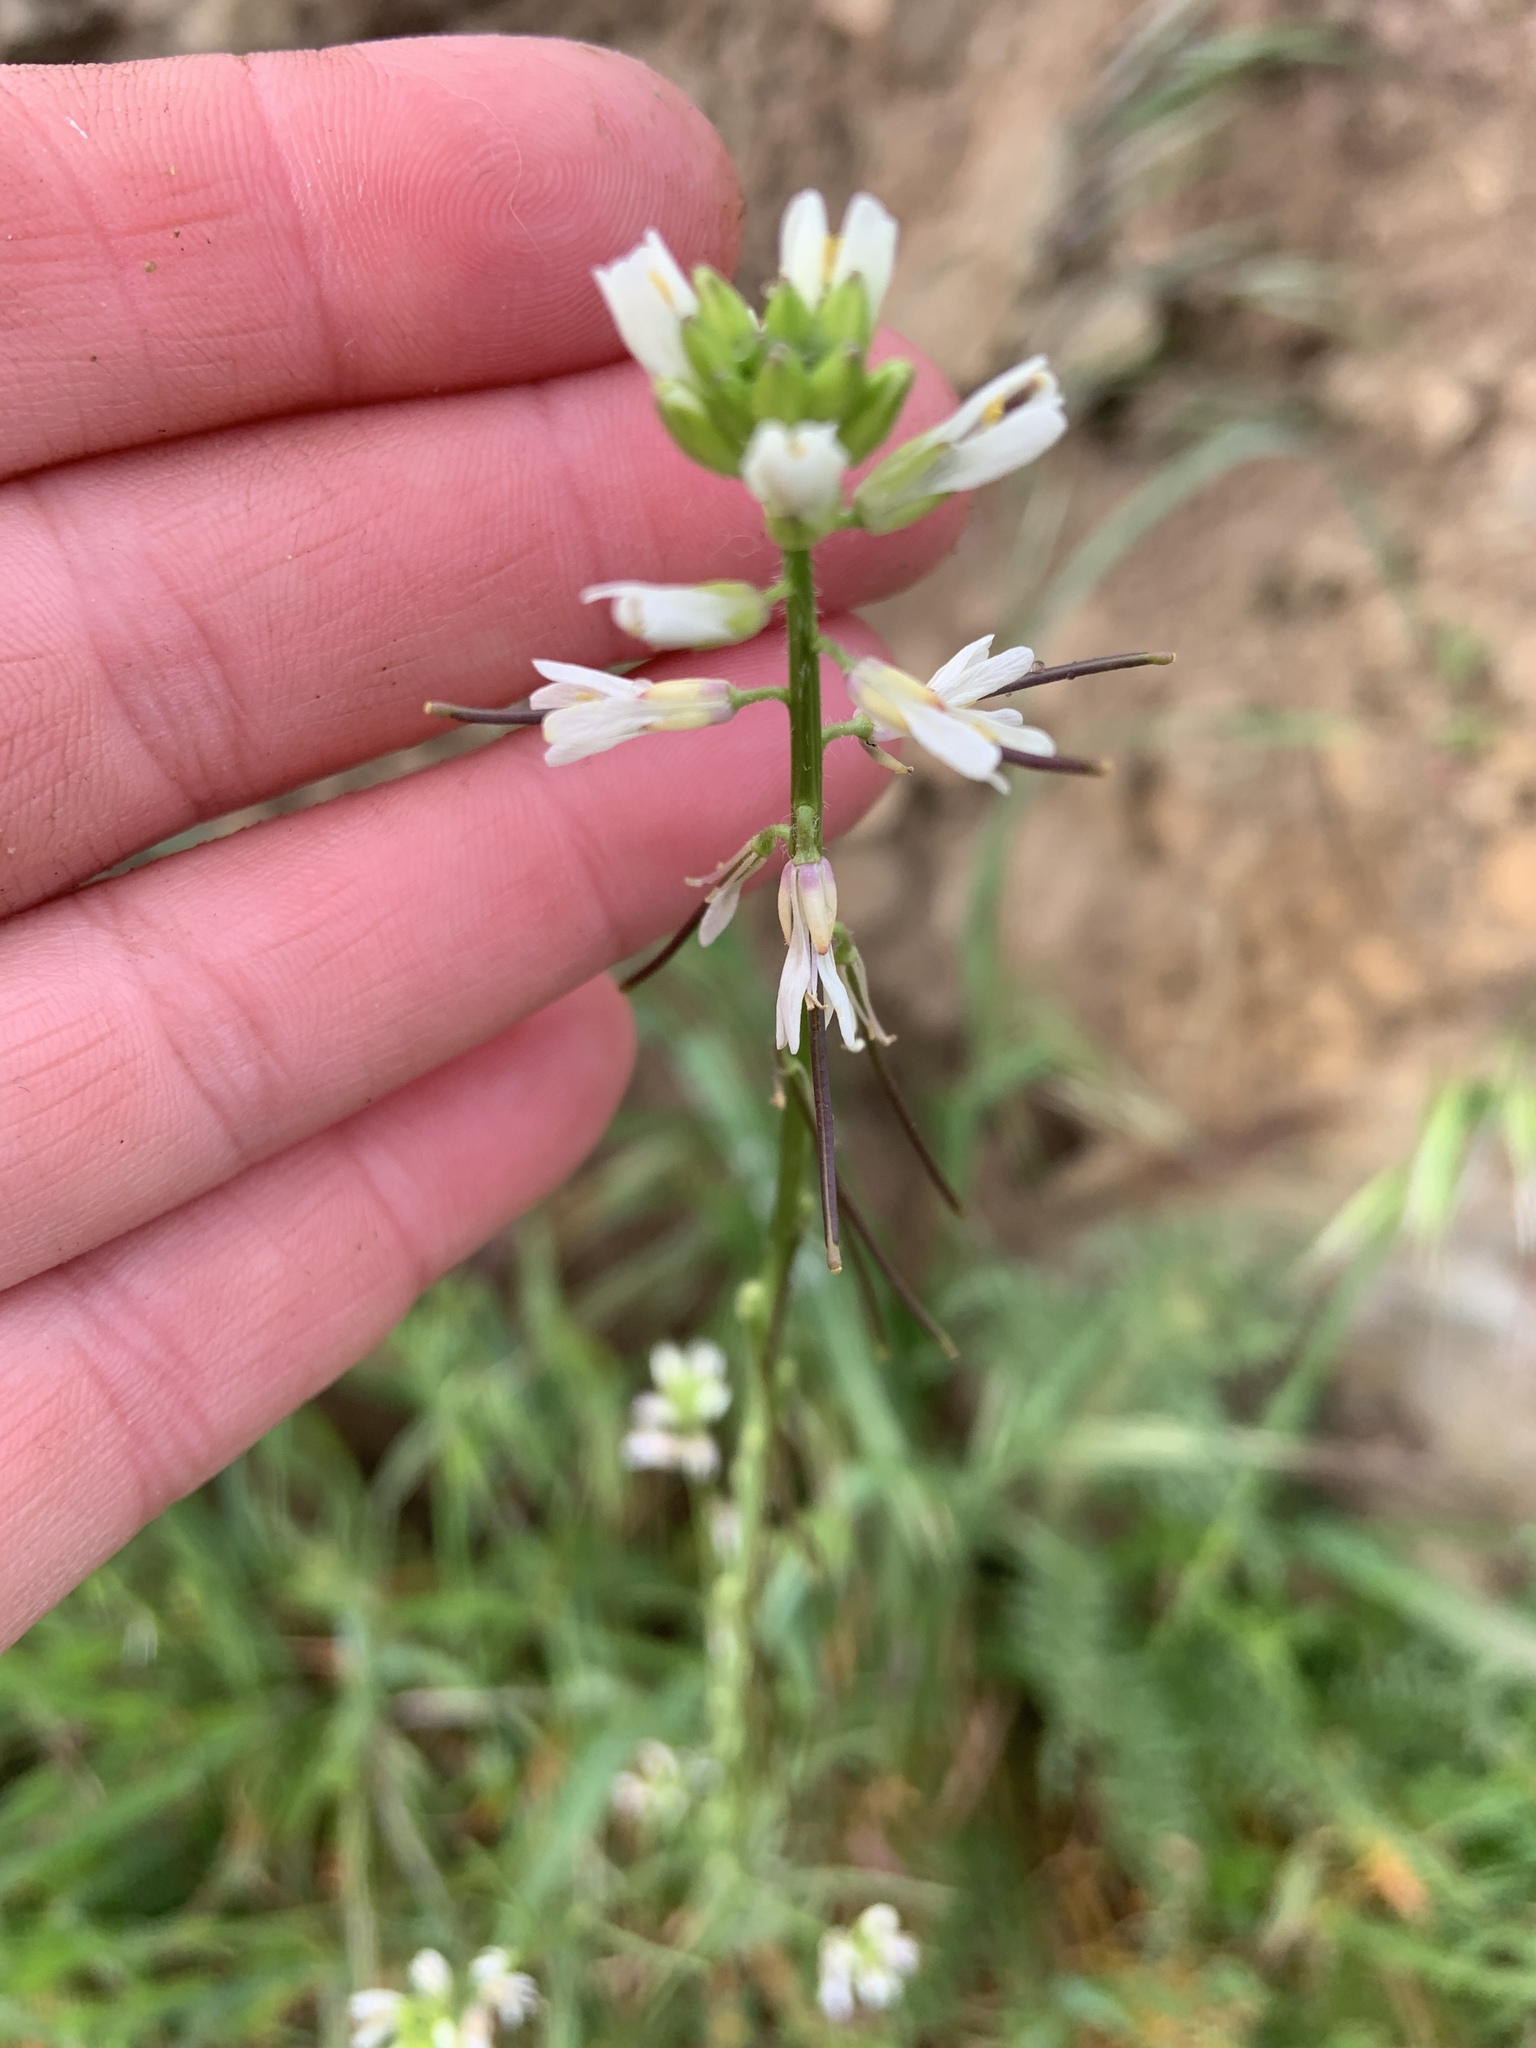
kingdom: Plantae
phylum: Tracheophyta
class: Magnoliopsida
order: Brassicales
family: Brassicaceae
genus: Streptanthus
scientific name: Streptanthus lasiophyllus
